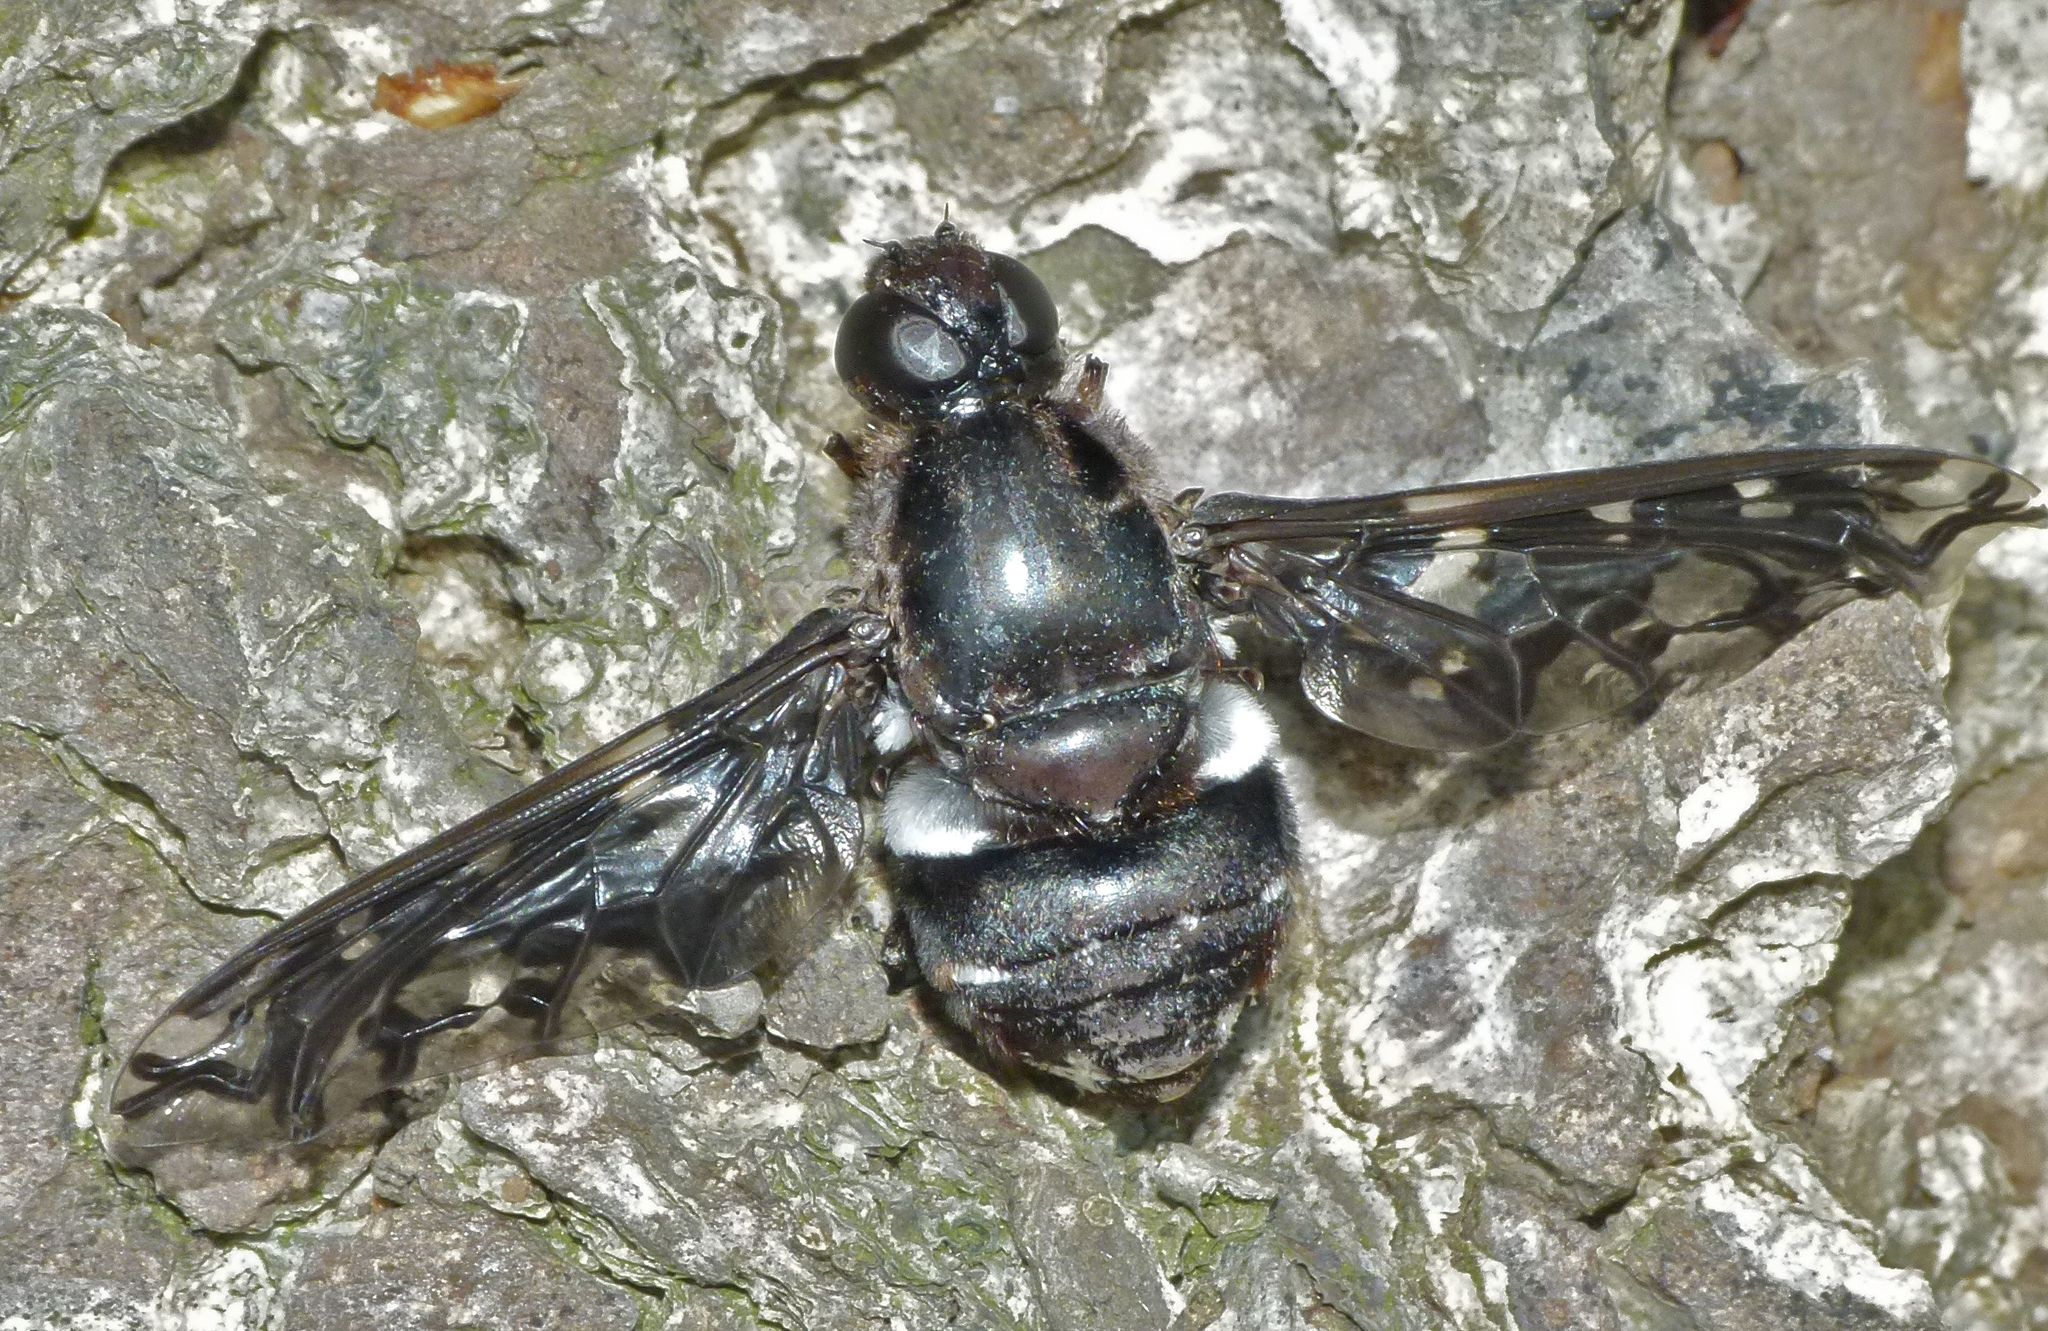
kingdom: Animalia
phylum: Arthropoda
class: Insecta
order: Diptera
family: Bombyliidae
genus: Xenox
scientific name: Xenox tigrinus
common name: Tiger bee fly
